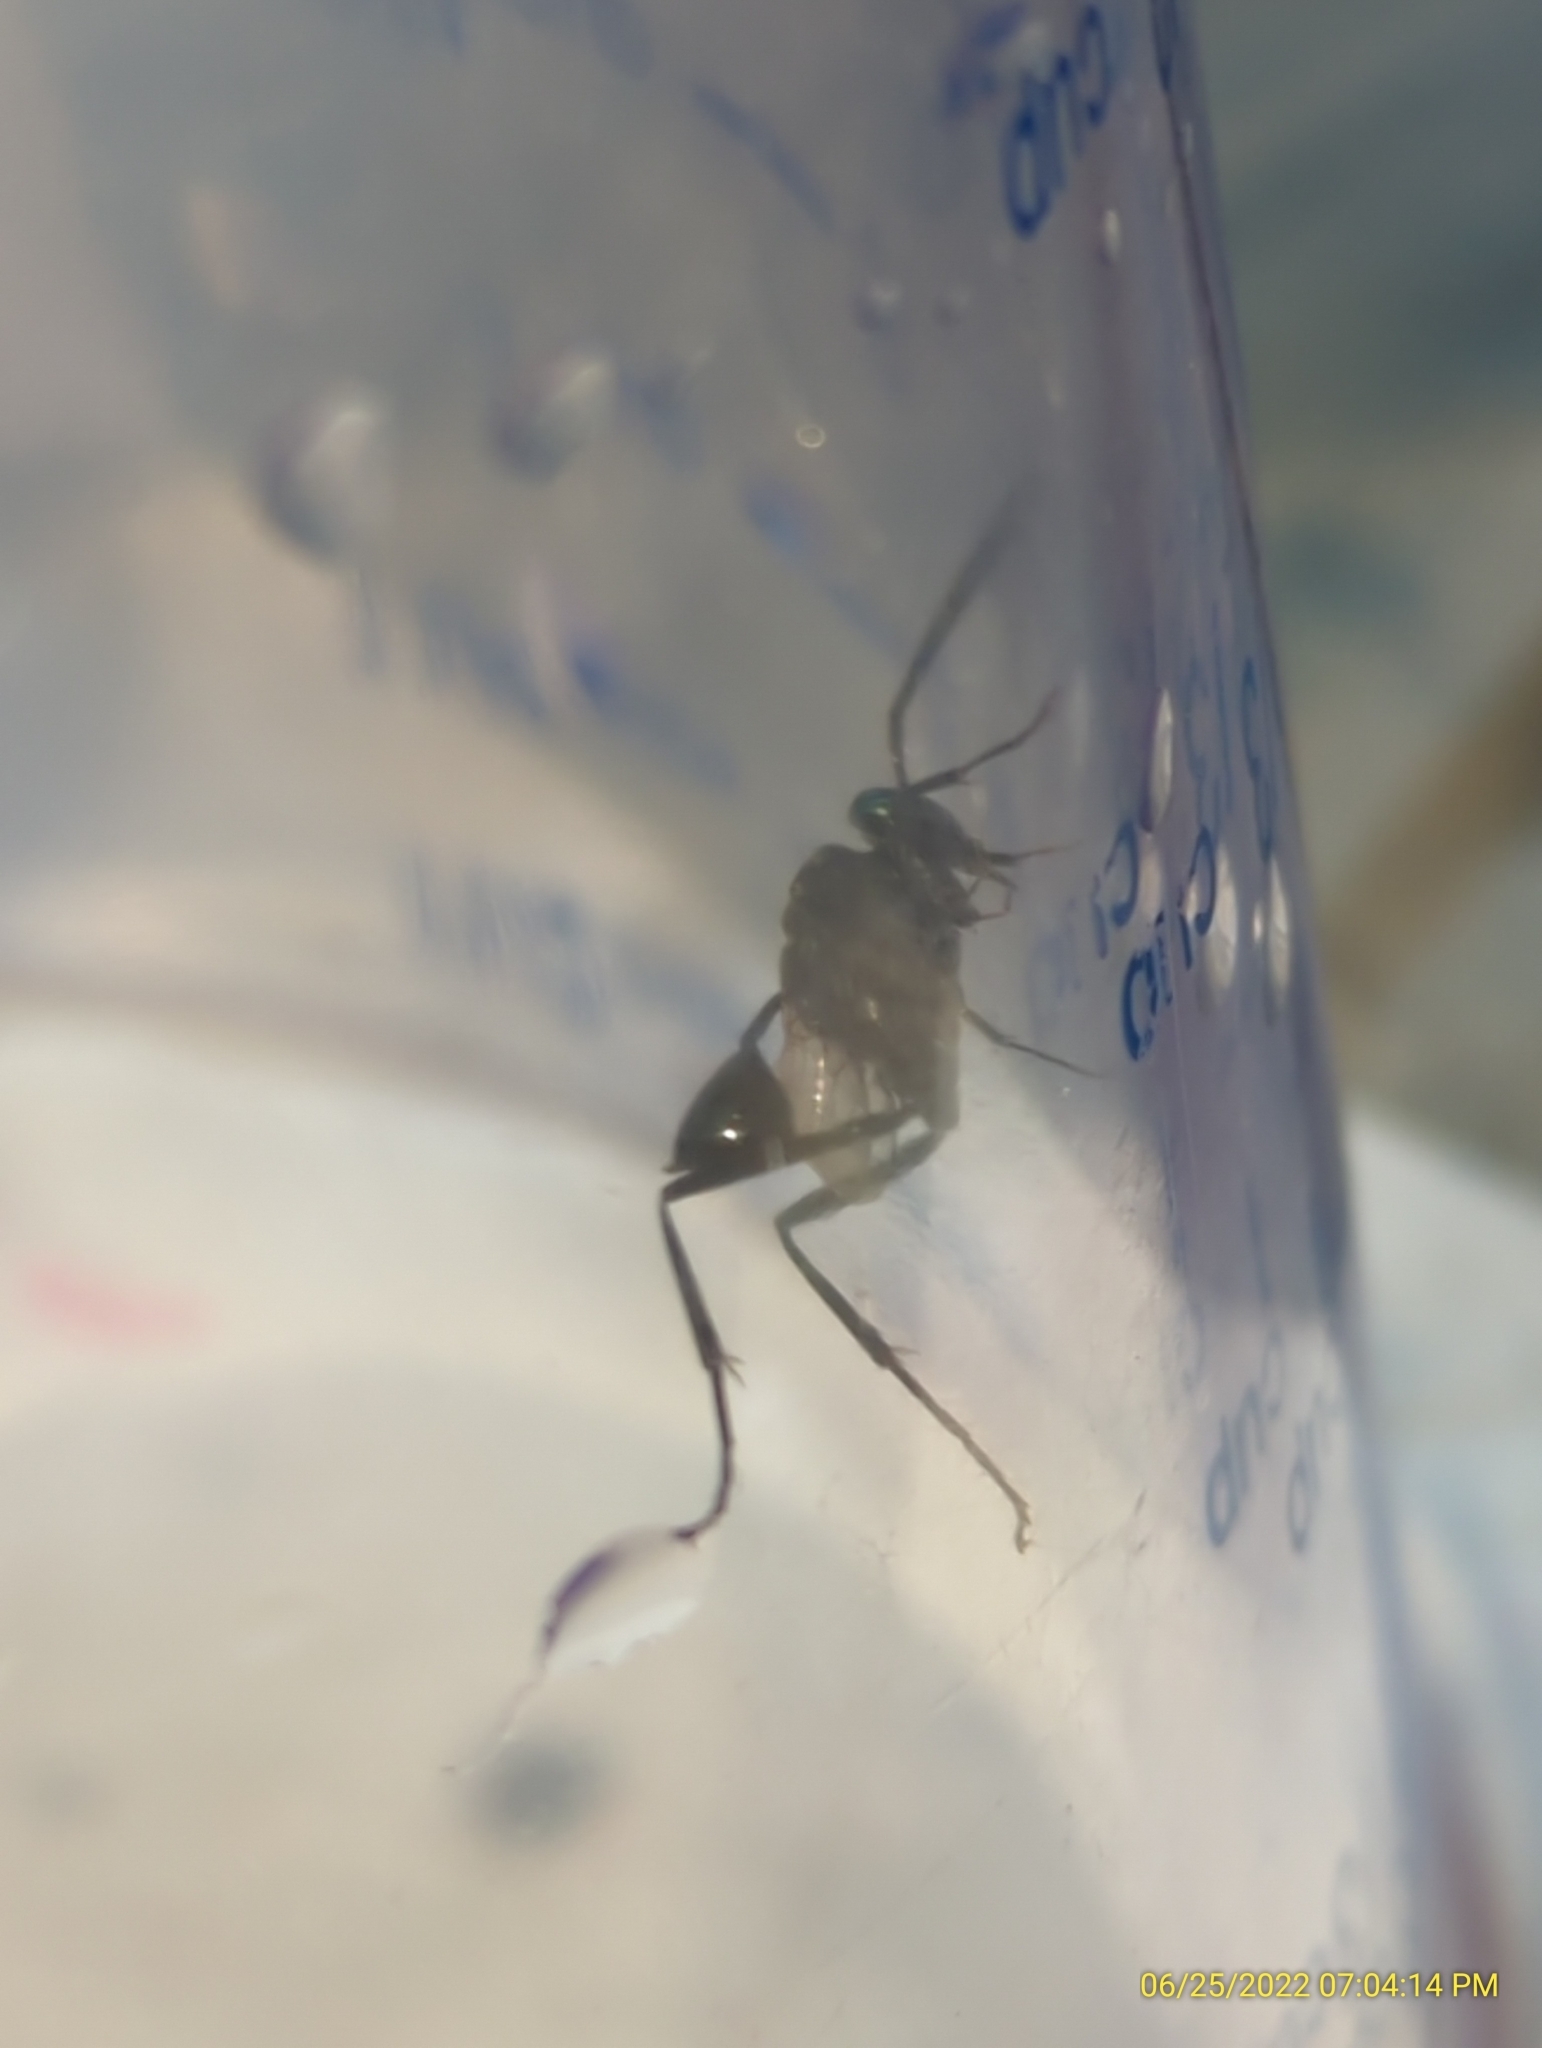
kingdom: Animalia
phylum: Arthropoda
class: Insecta
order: Hymenoptera
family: Evaniidae
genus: Evania
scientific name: Evania appendigaster
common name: Ensign wasp
